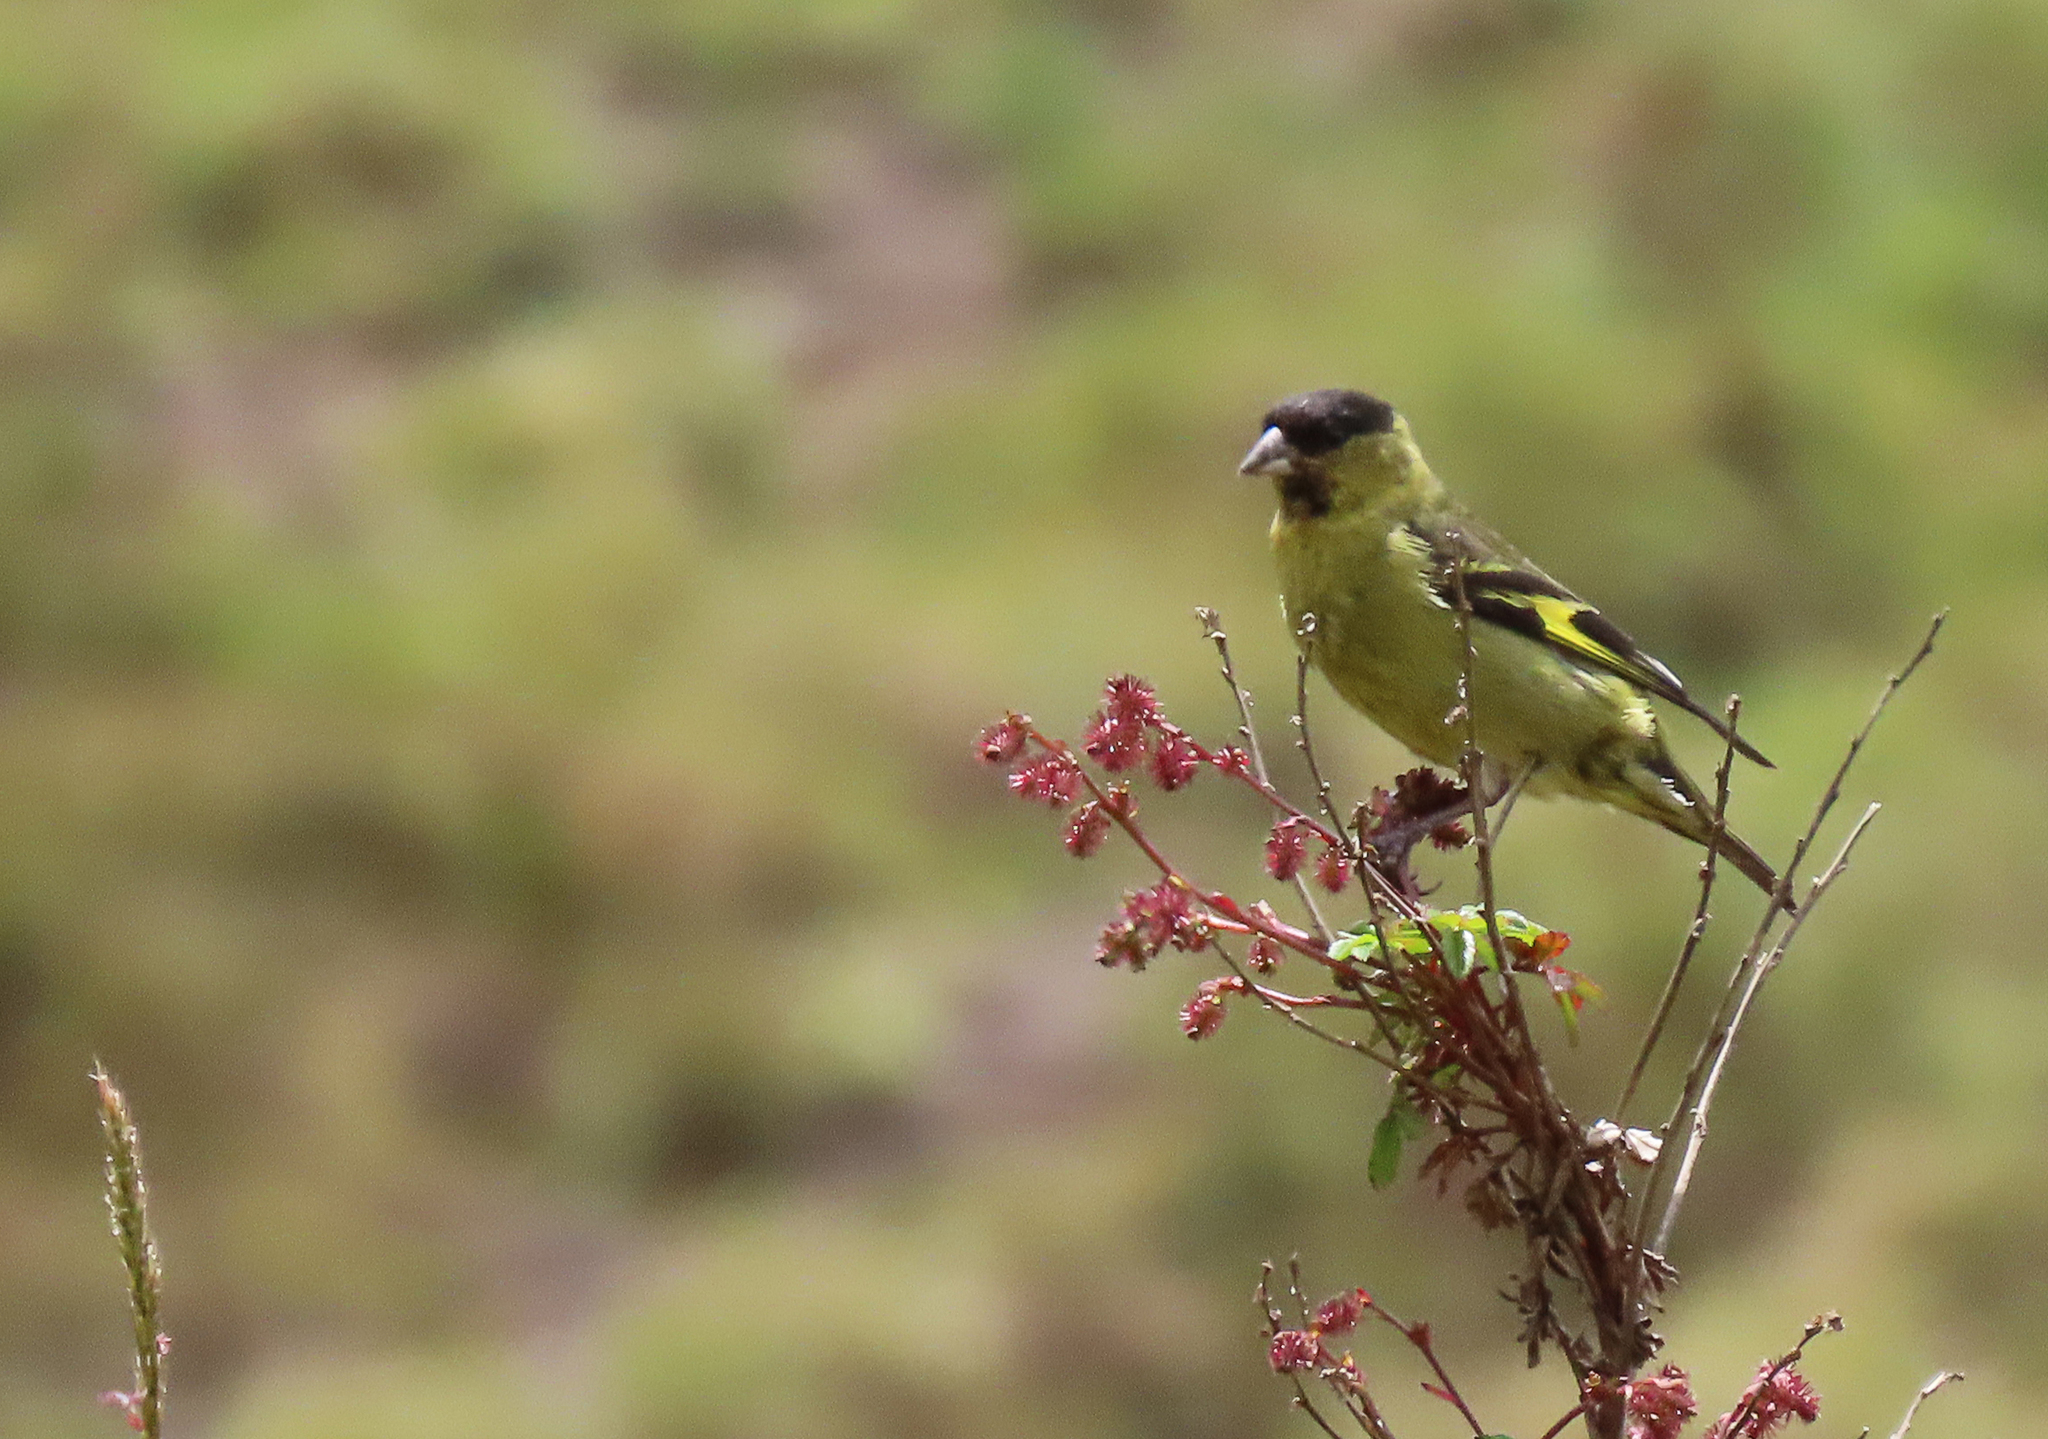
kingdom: Animalia
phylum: Chordata
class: Aves
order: Passeriformes
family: Fringillidae
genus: Spinus
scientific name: Spinus spinescens
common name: Andean siskin
